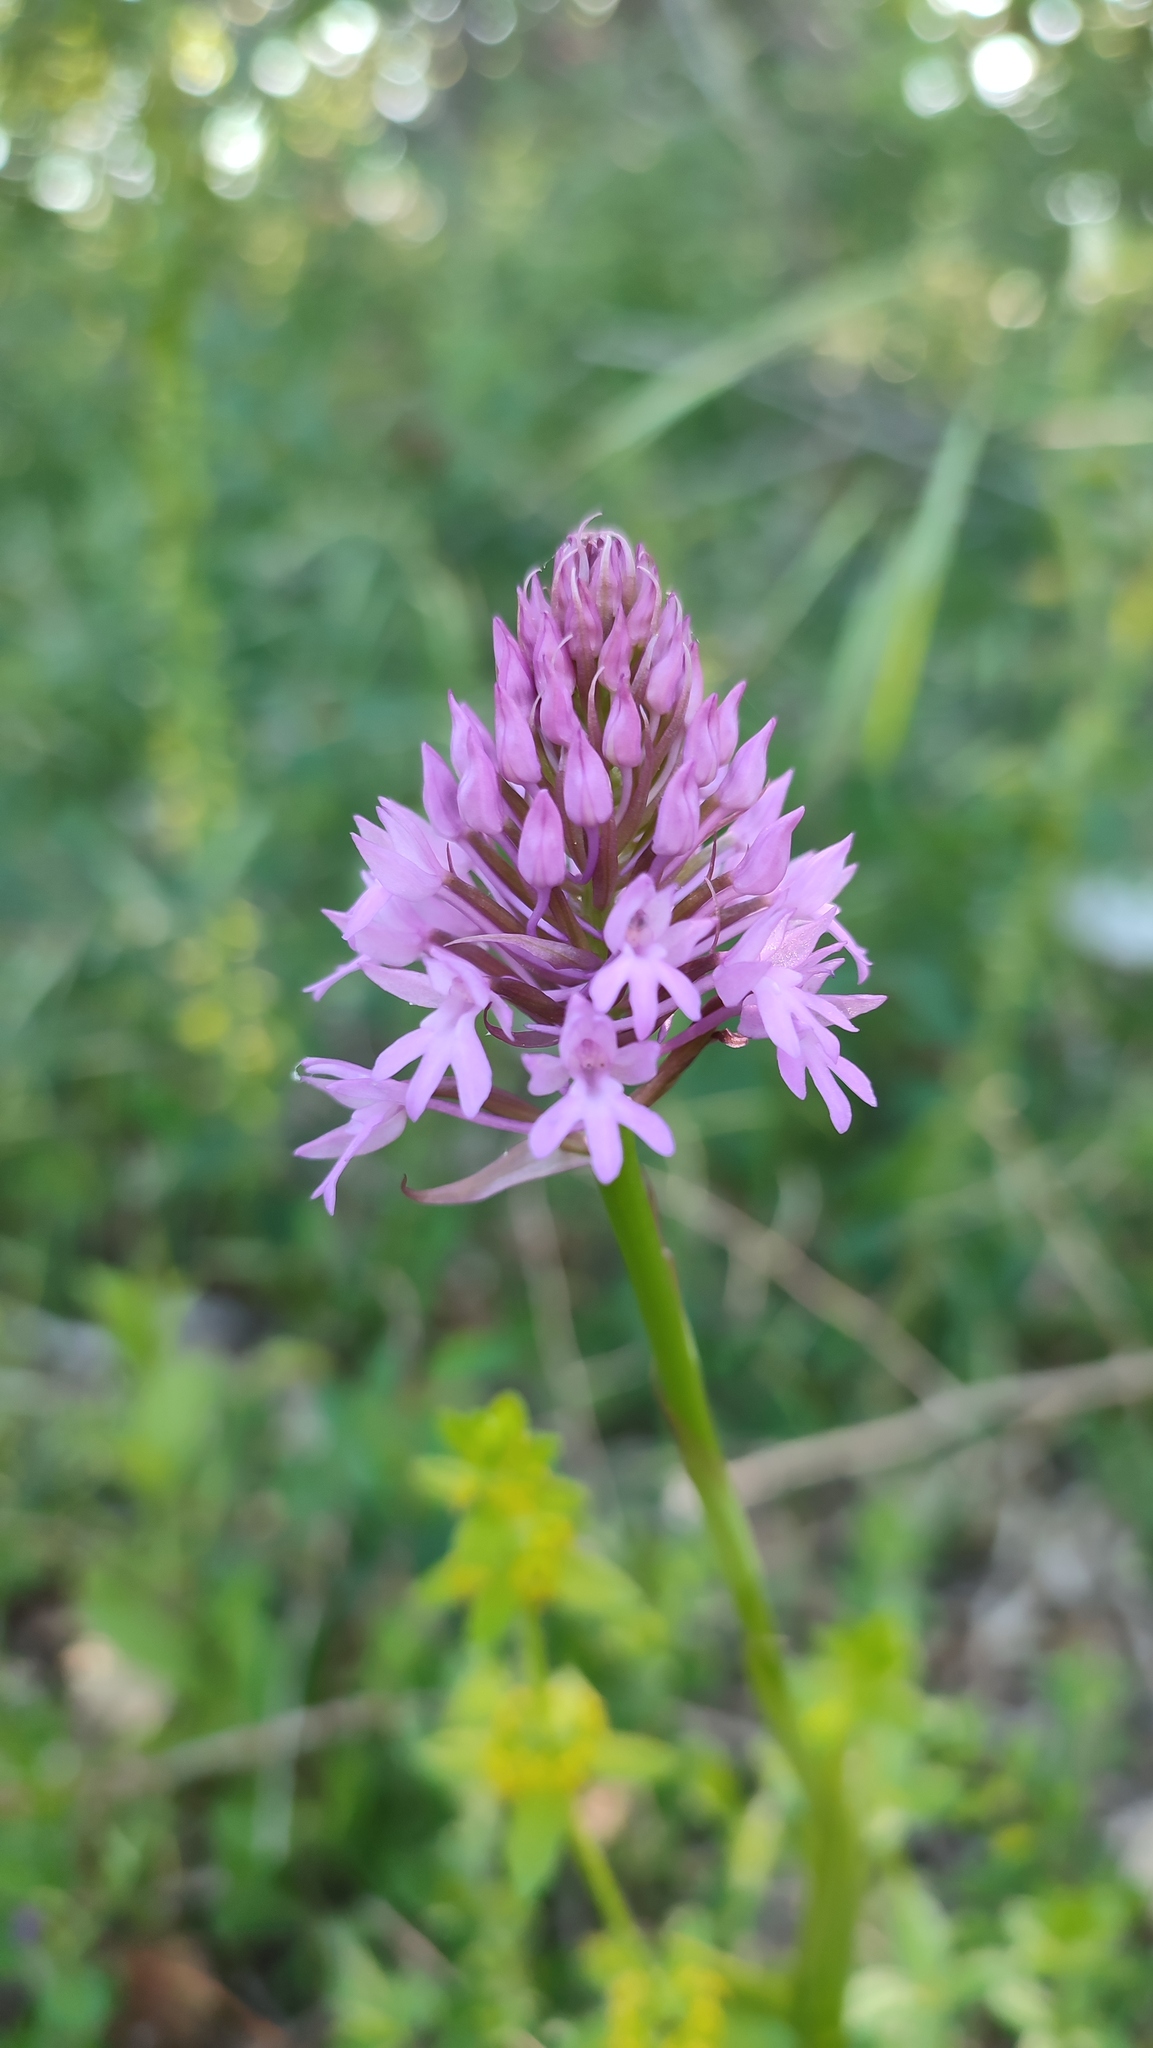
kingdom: Plantae
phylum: Tracheophyta
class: Liliopsida
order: Asparagales
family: Orchidaceae
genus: Anacamptis
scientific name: Anacamptis pyramidalis
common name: Pyramidal orchid
